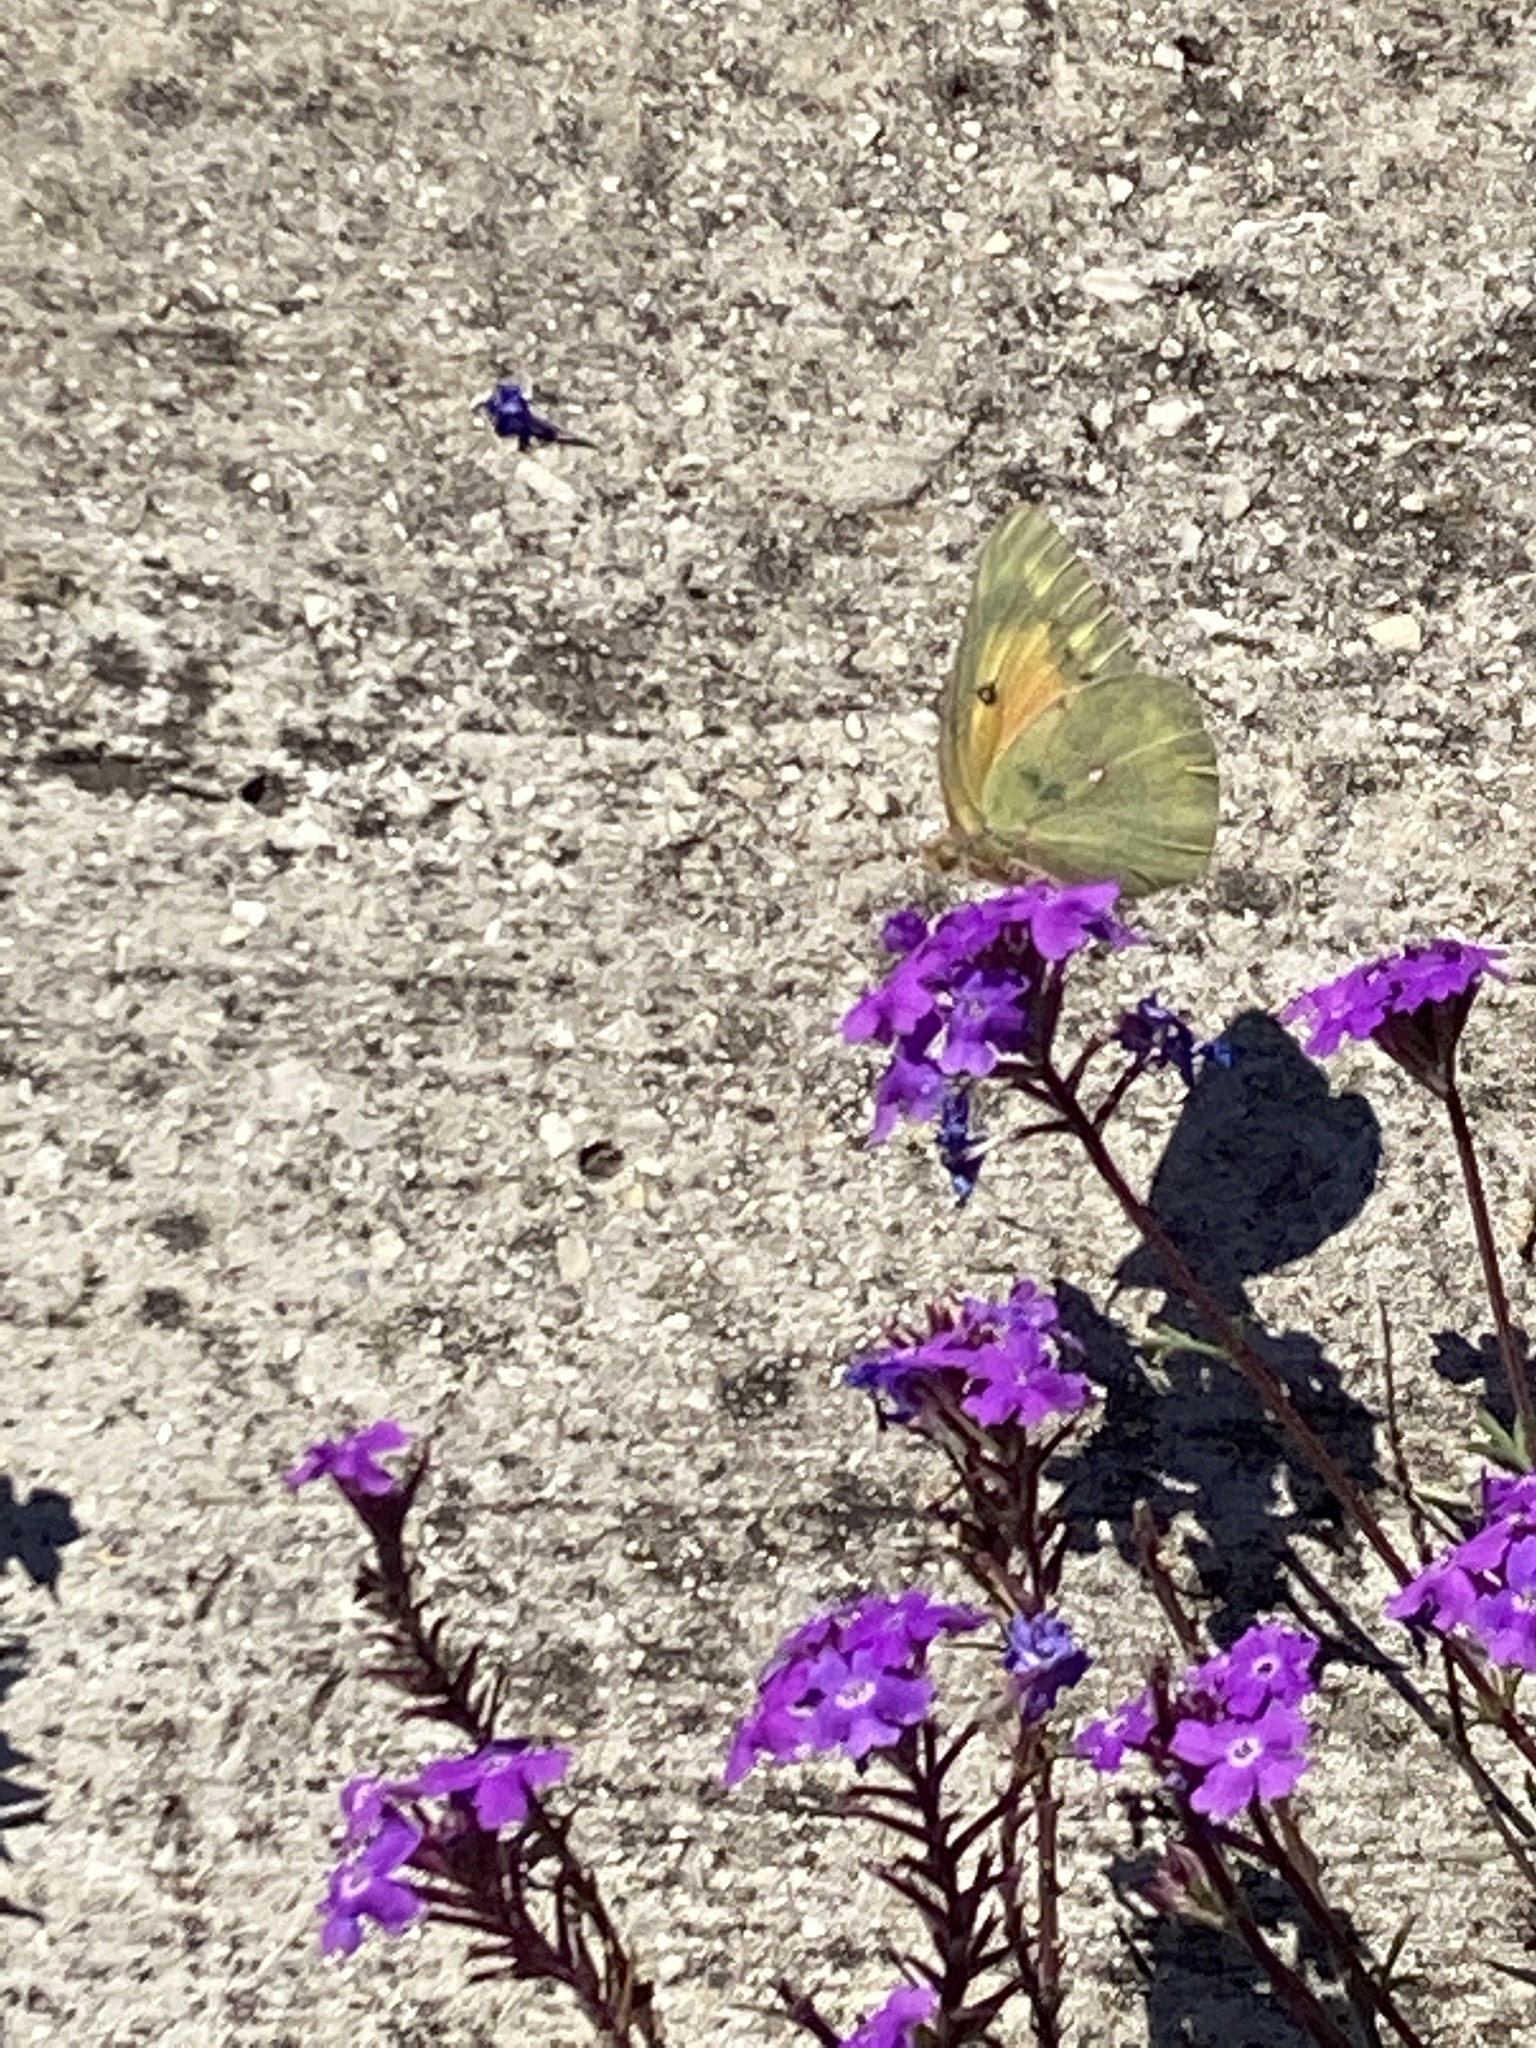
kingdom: Animalia
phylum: Arthropoda
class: Insecta
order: Lepidoptera
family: Pieridae
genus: Colias
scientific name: Colias eurytheme
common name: Alfalfa butterfly
